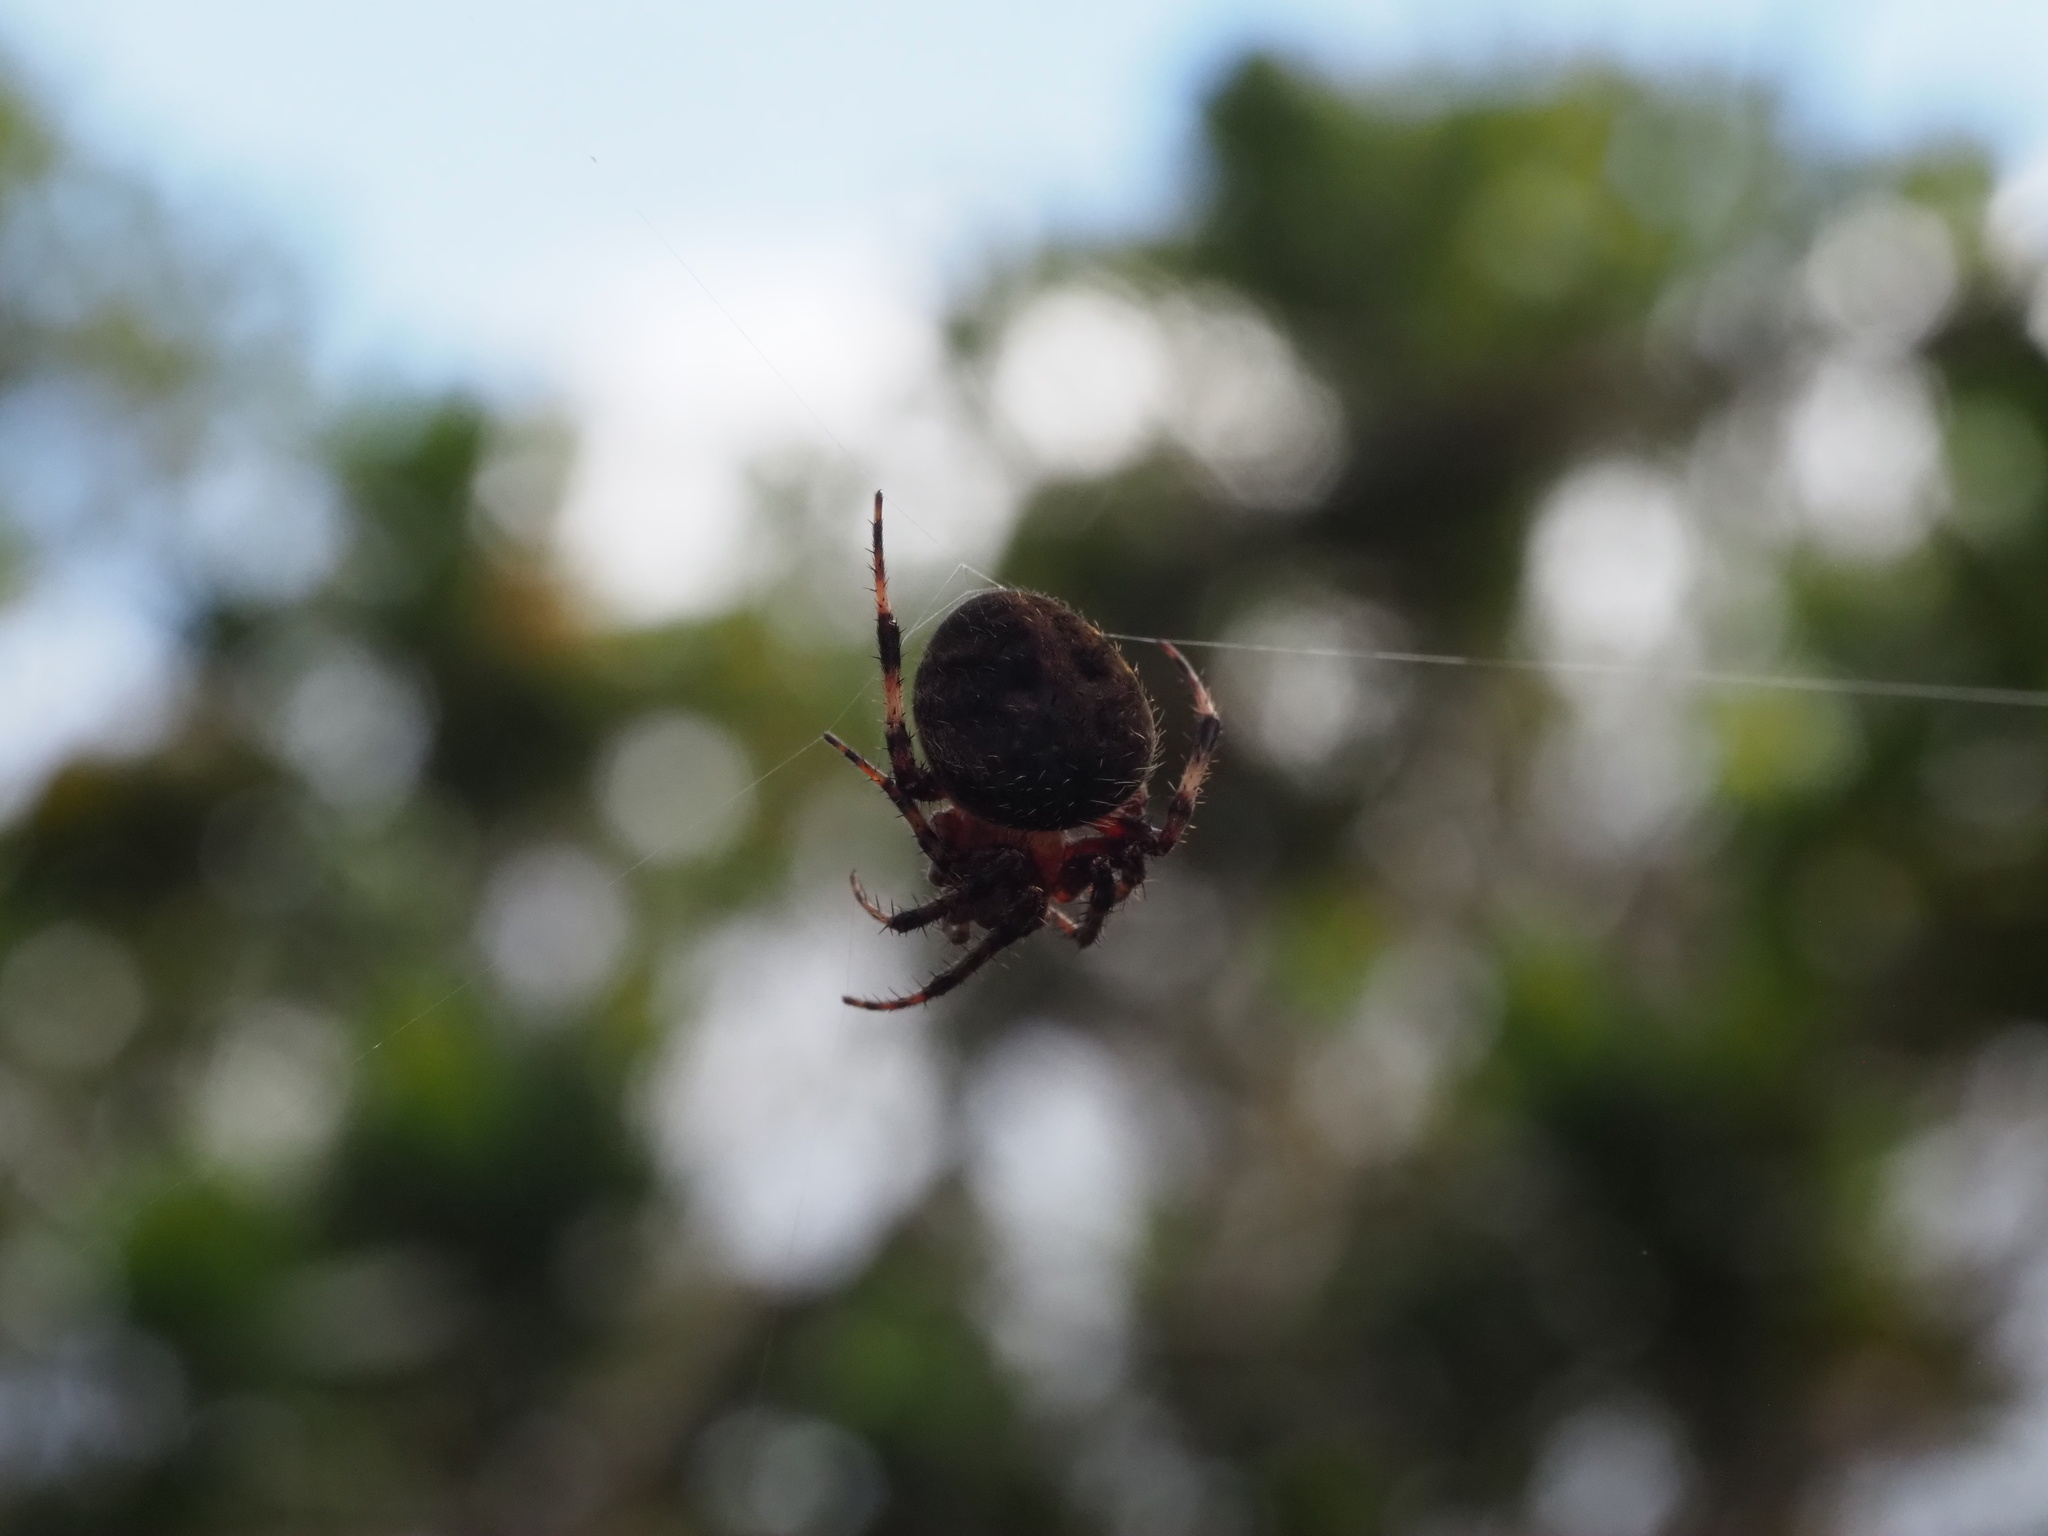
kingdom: Animalia
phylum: Arthropoda
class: Arachnida
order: Araneae
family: Araneidae
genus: Neoscona
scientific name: Neoscona crucifera
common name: Spotted orbweaver
